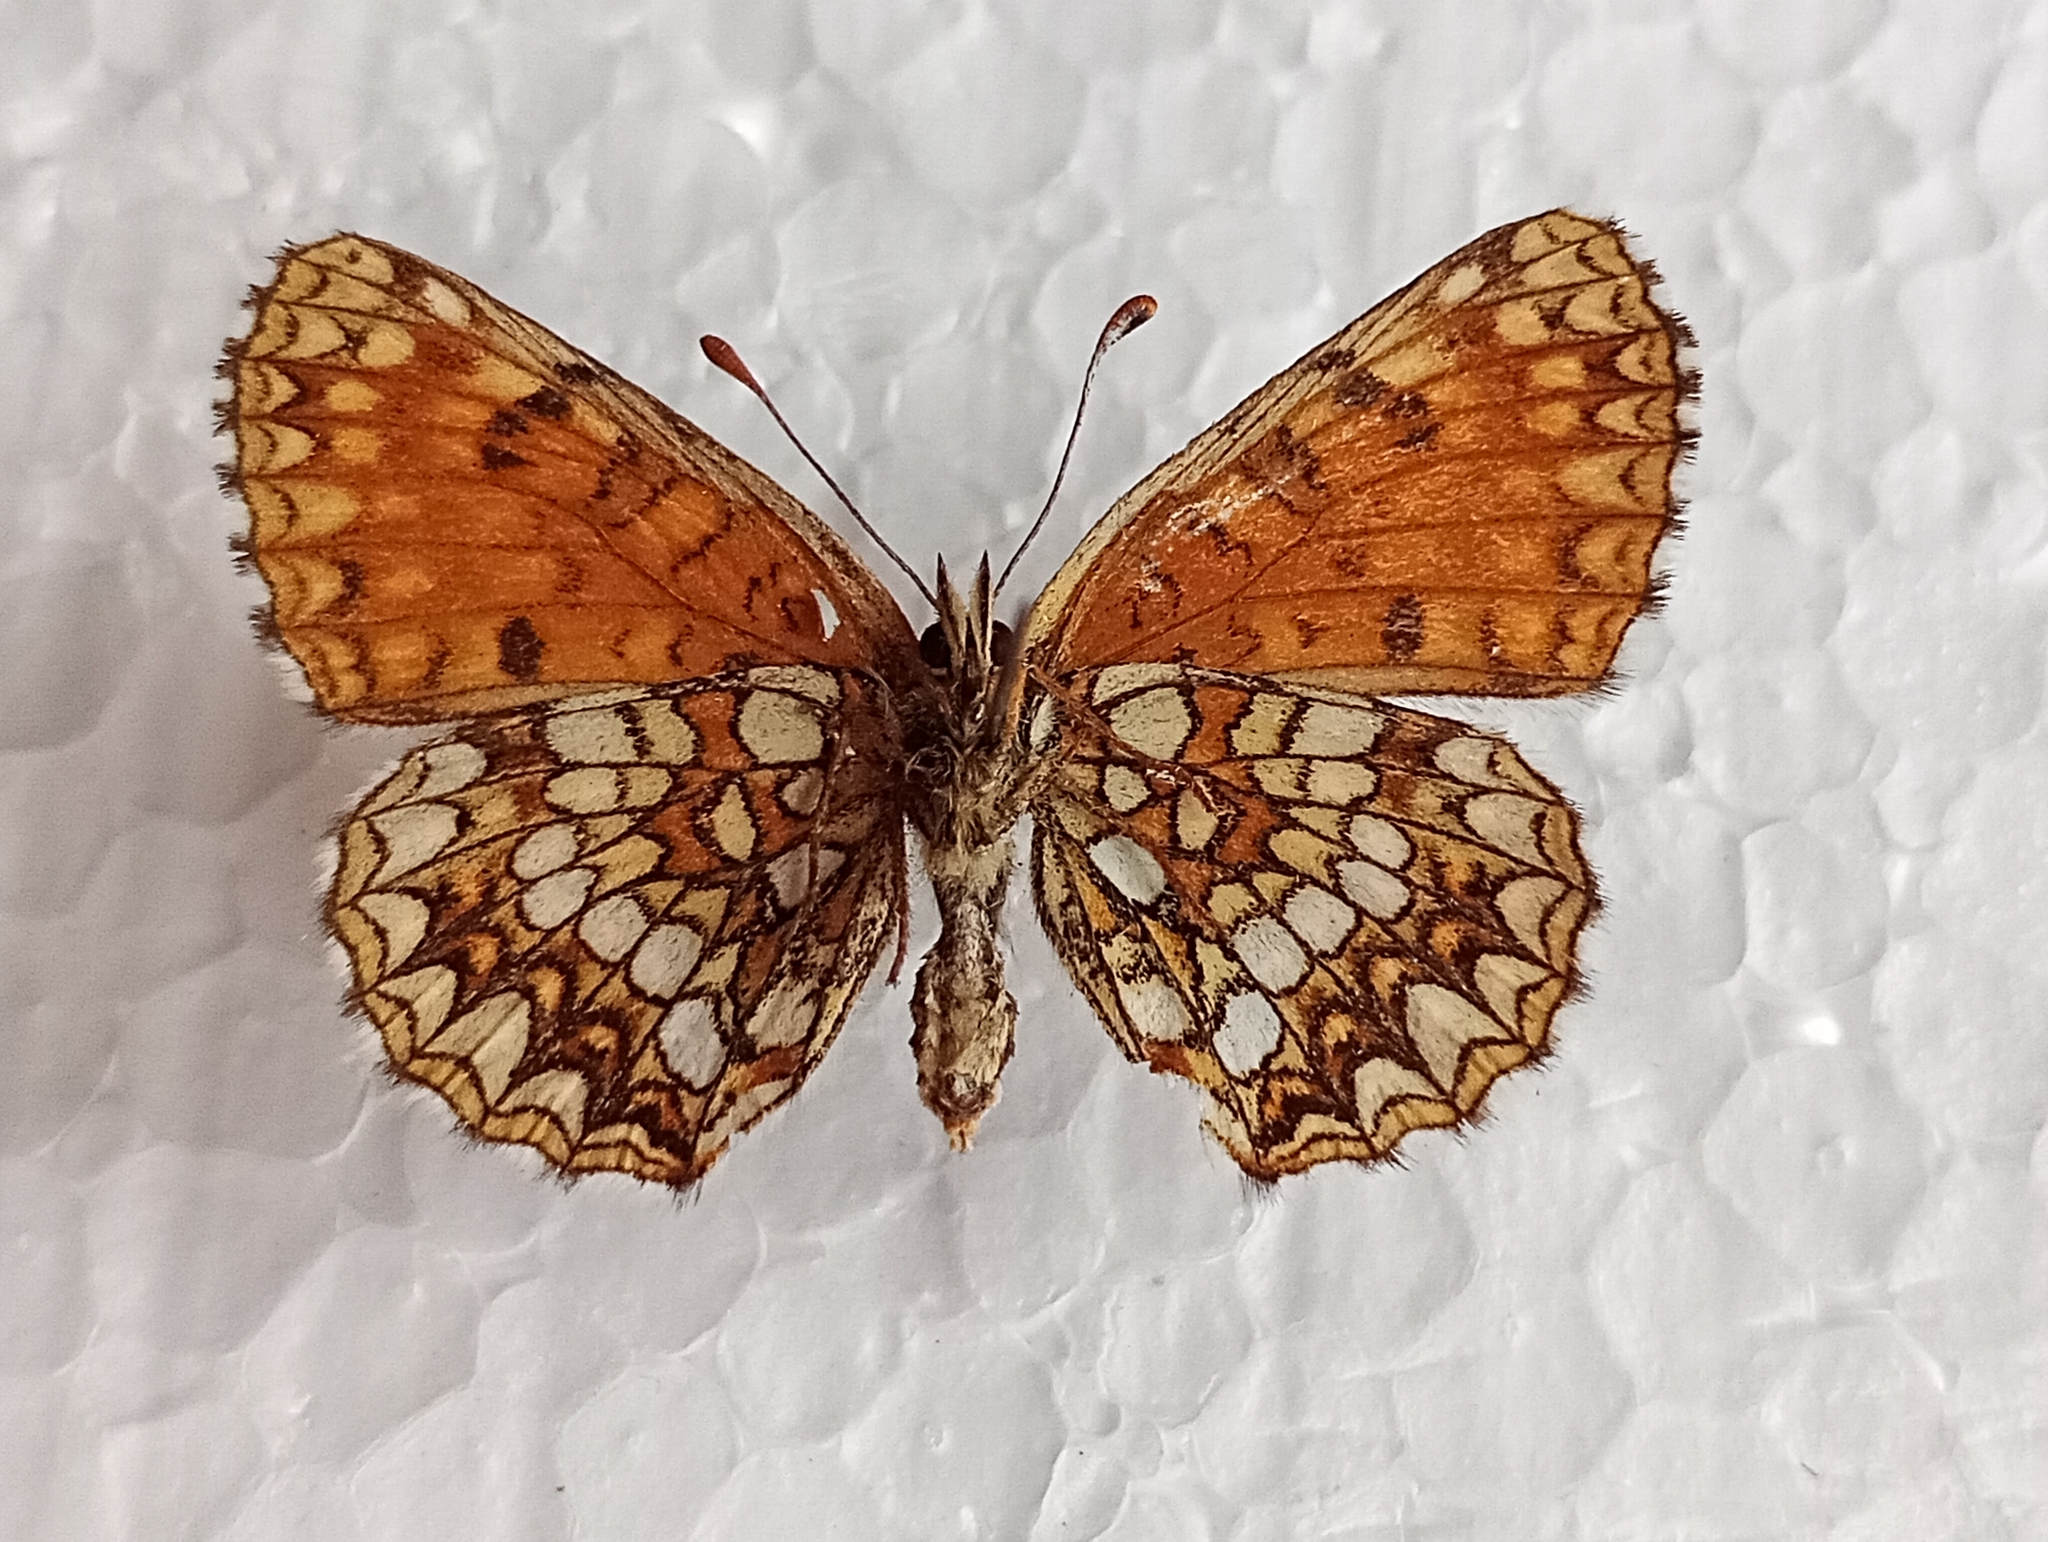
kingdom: Animalia
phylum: Arthropoda
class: Insecta
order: Lepidoptera
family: Nymphalidae
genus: Melitaea
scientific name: Melitaea diamina
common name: False heath fritillary
